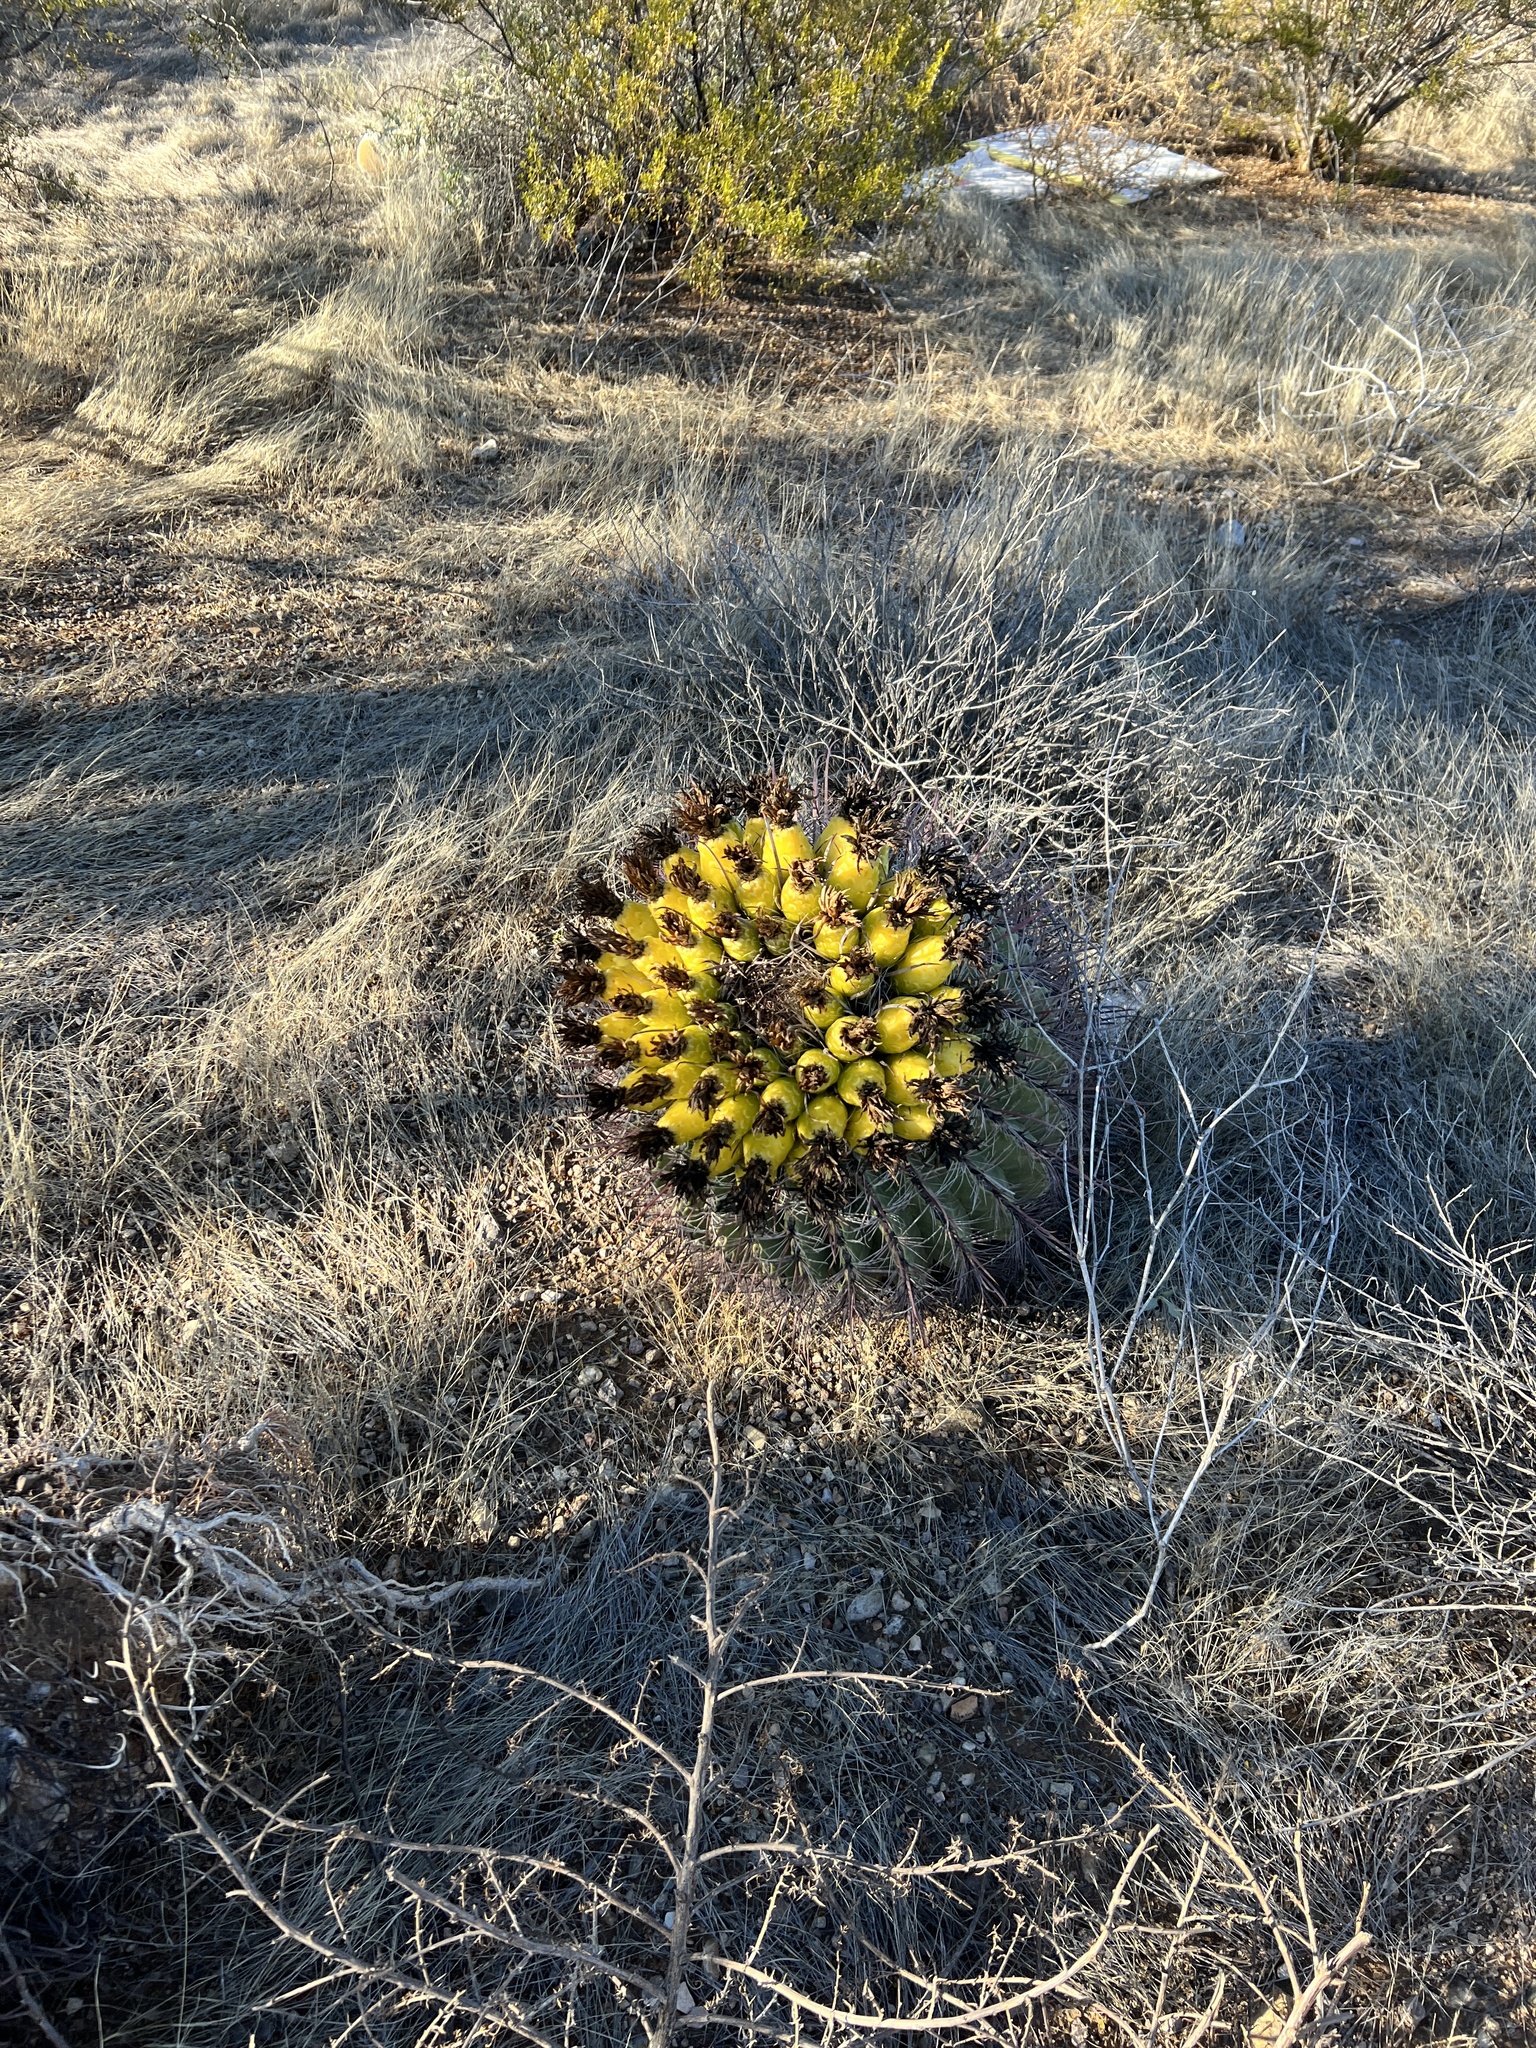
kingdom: Plantae
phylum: Tracheophyta
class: Magnoliopsida
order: Caryophyllales
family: Cactaceae
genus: Ferocactus
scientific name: Ferocactus wislizeni
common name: Candy barrel cactus
